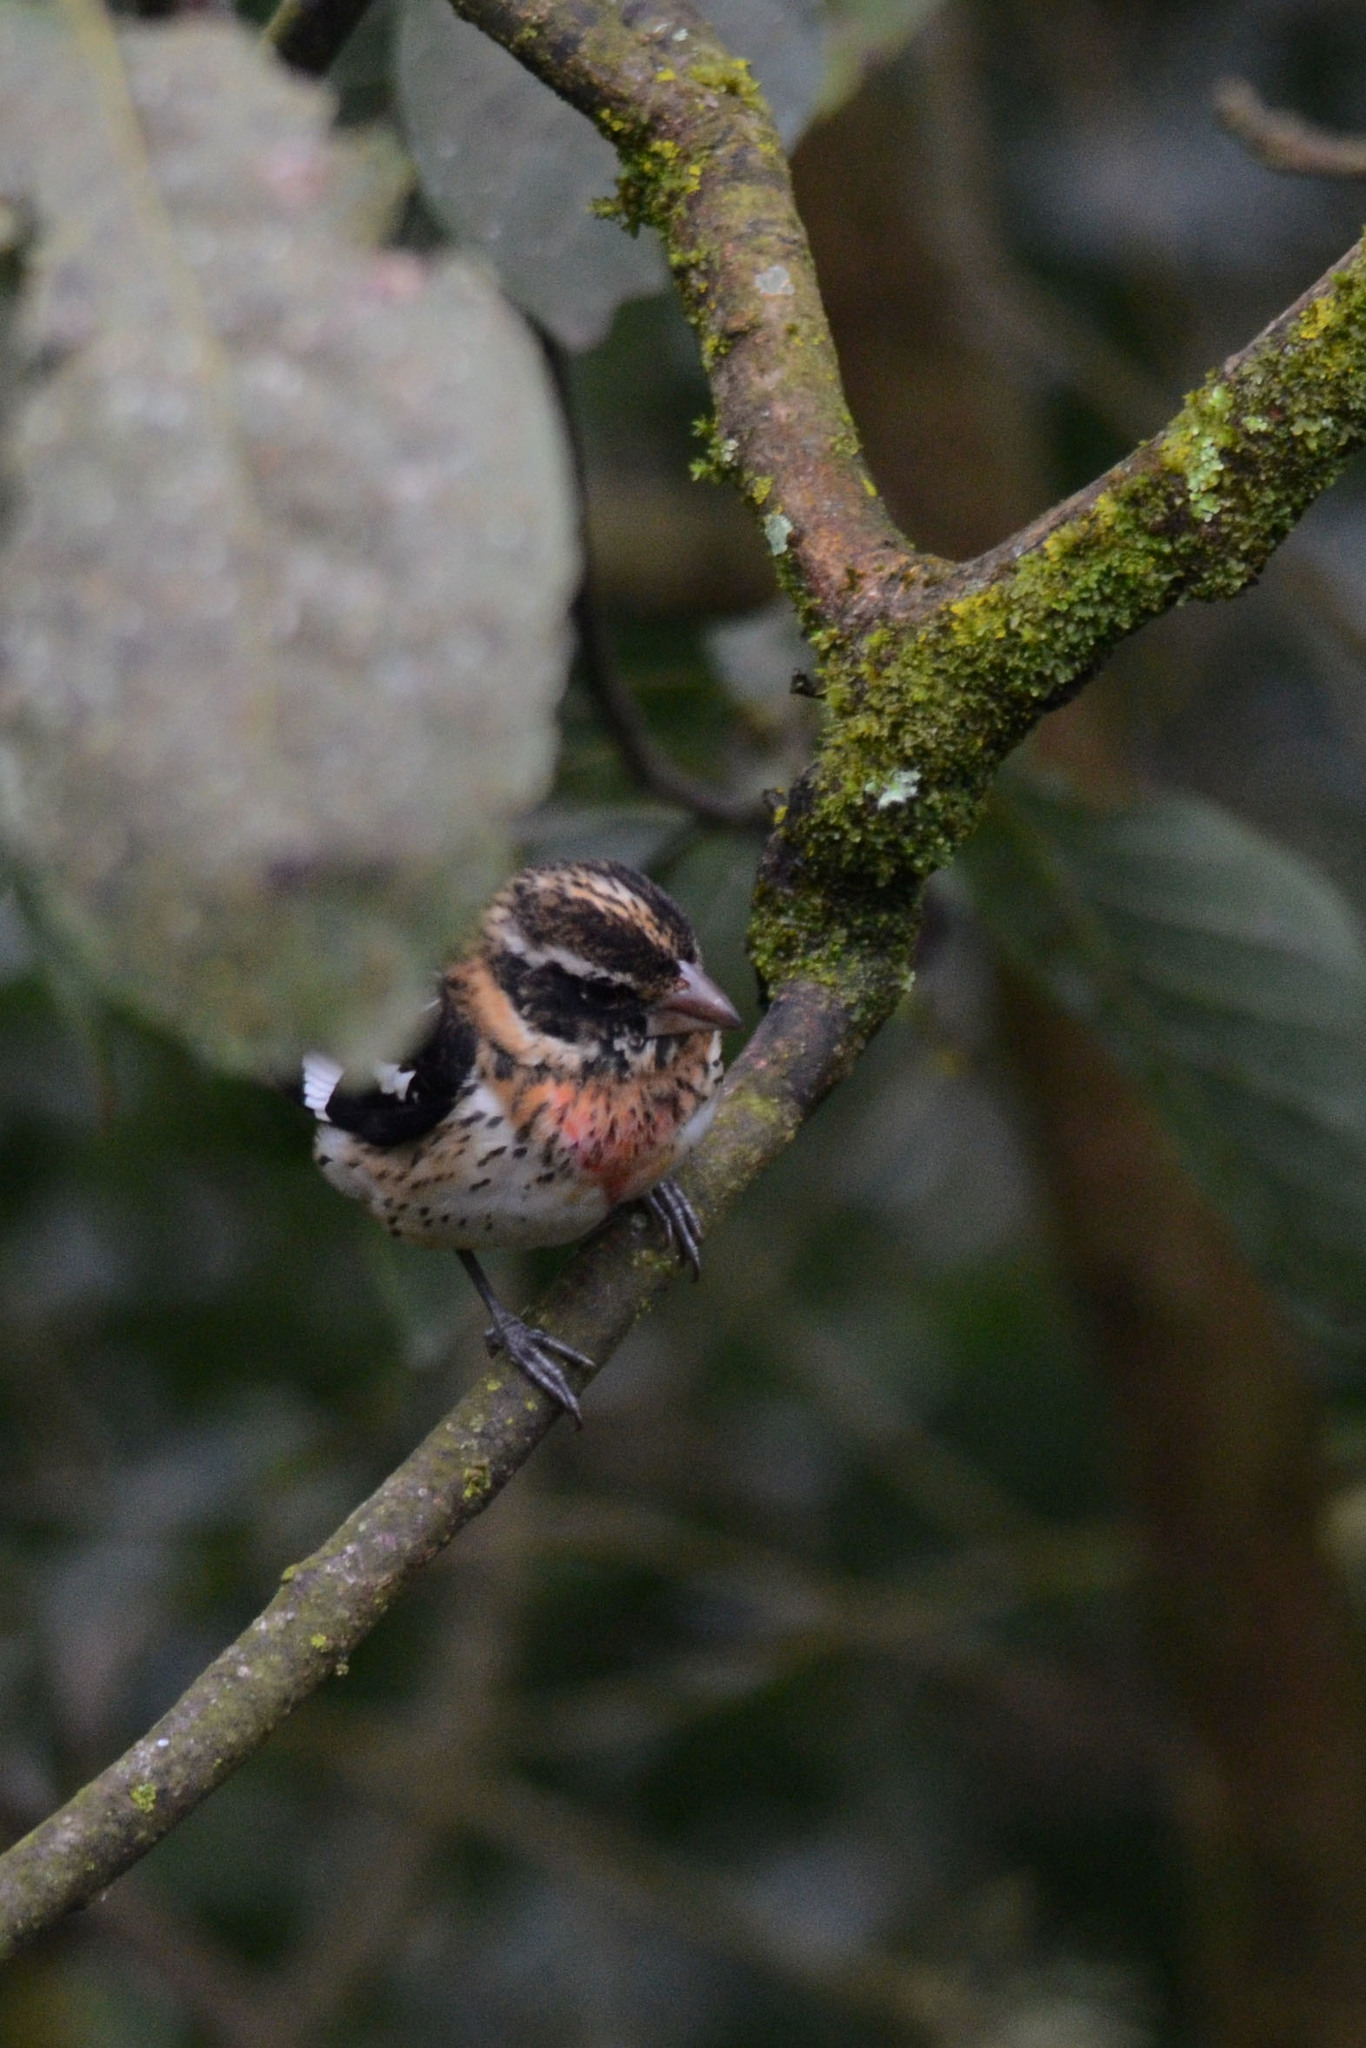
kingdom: Animalia
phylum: Chordata
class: Aves
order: Passeriformes
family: Cardinalidae
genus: Pheucticus
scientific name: Pheucticus ludovicianus
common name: Rose-breasted grosbeak
